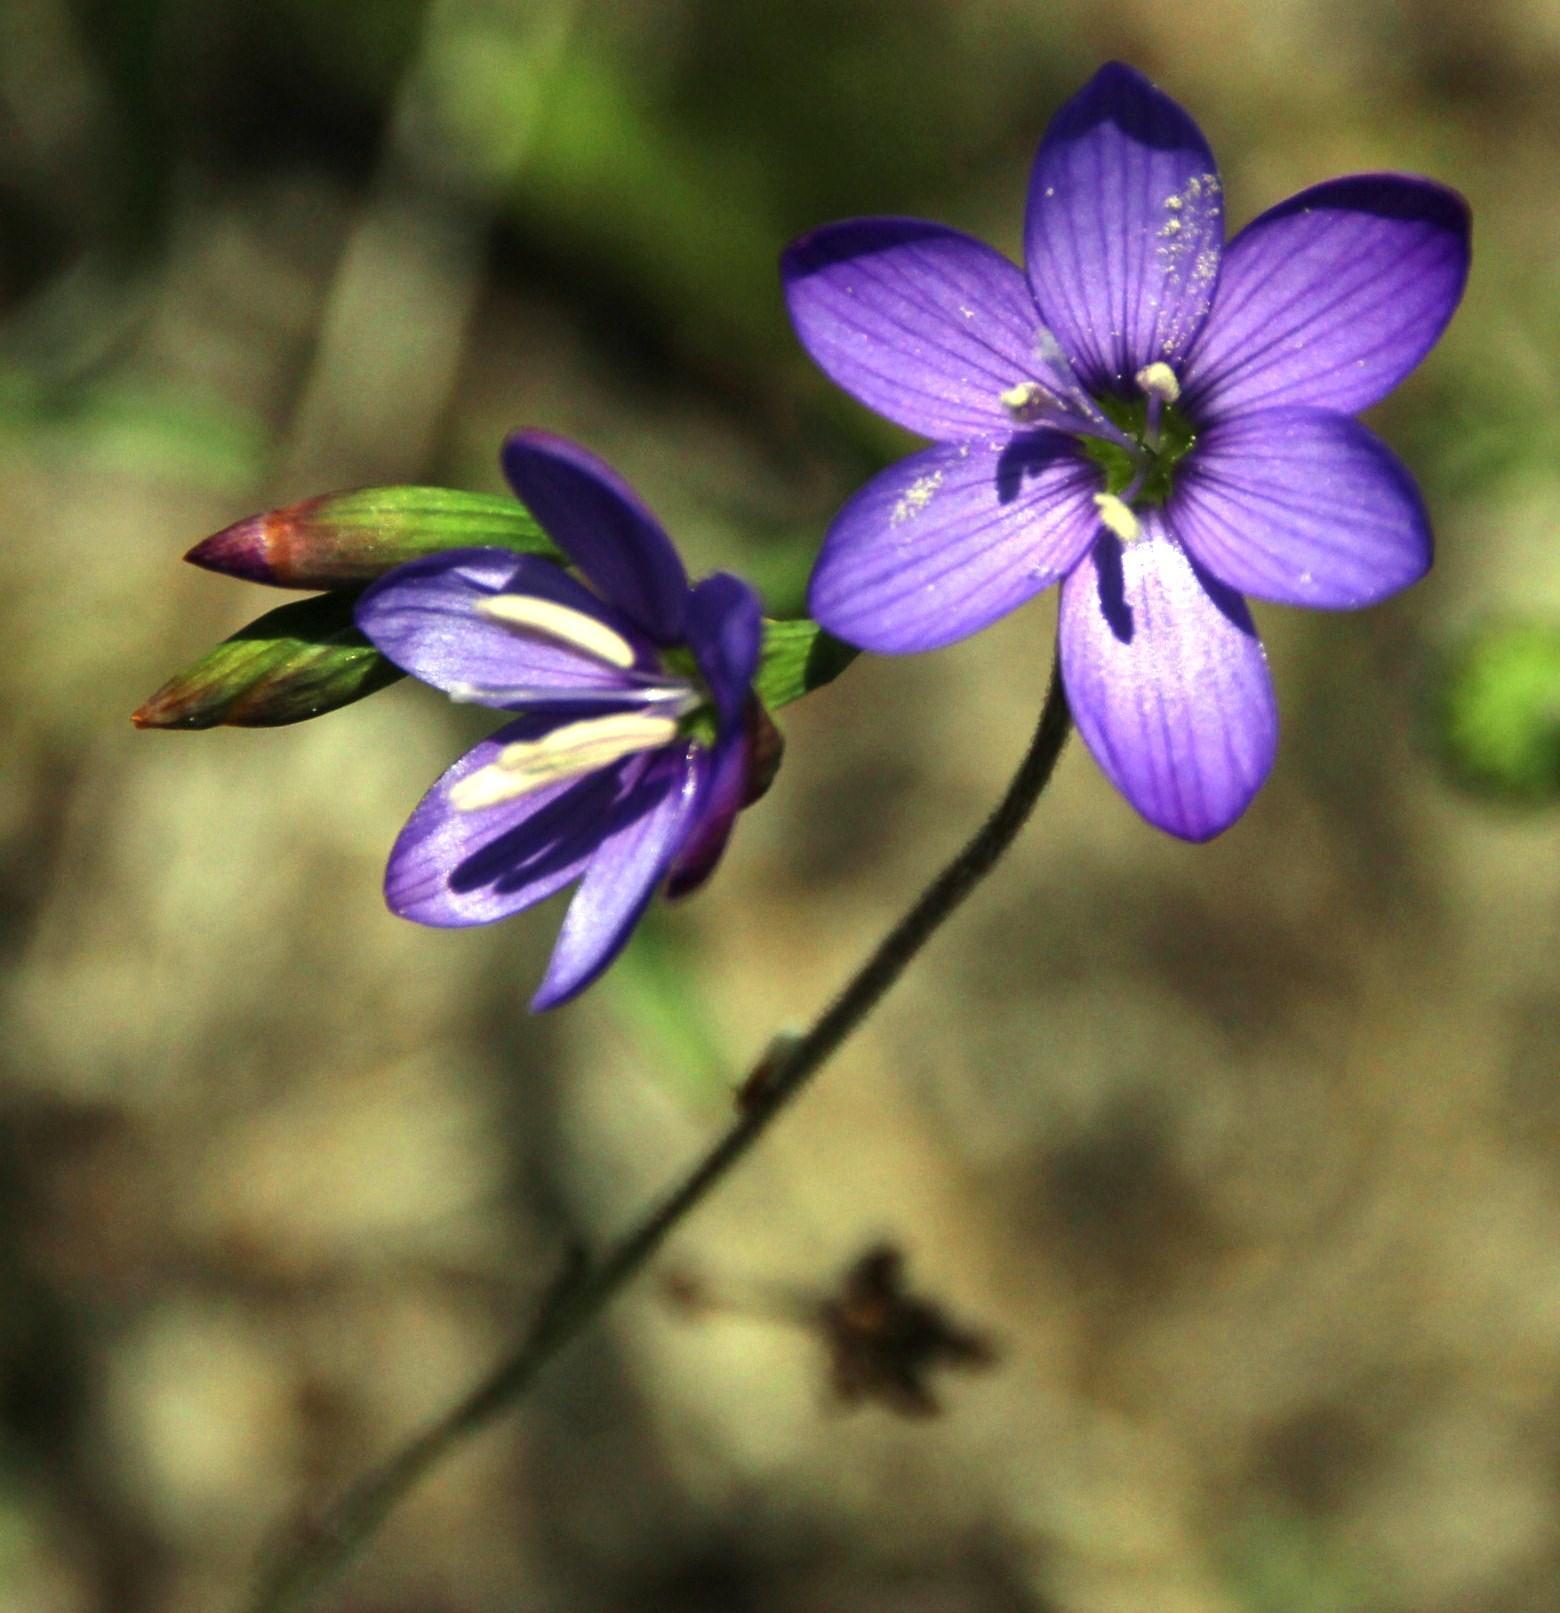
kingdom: Plantae
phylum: Tracheophyta
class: Liliopsida
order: Asparagales
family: Iridaceae
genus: Geissorhiza
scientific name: Geissorhiza aspera
